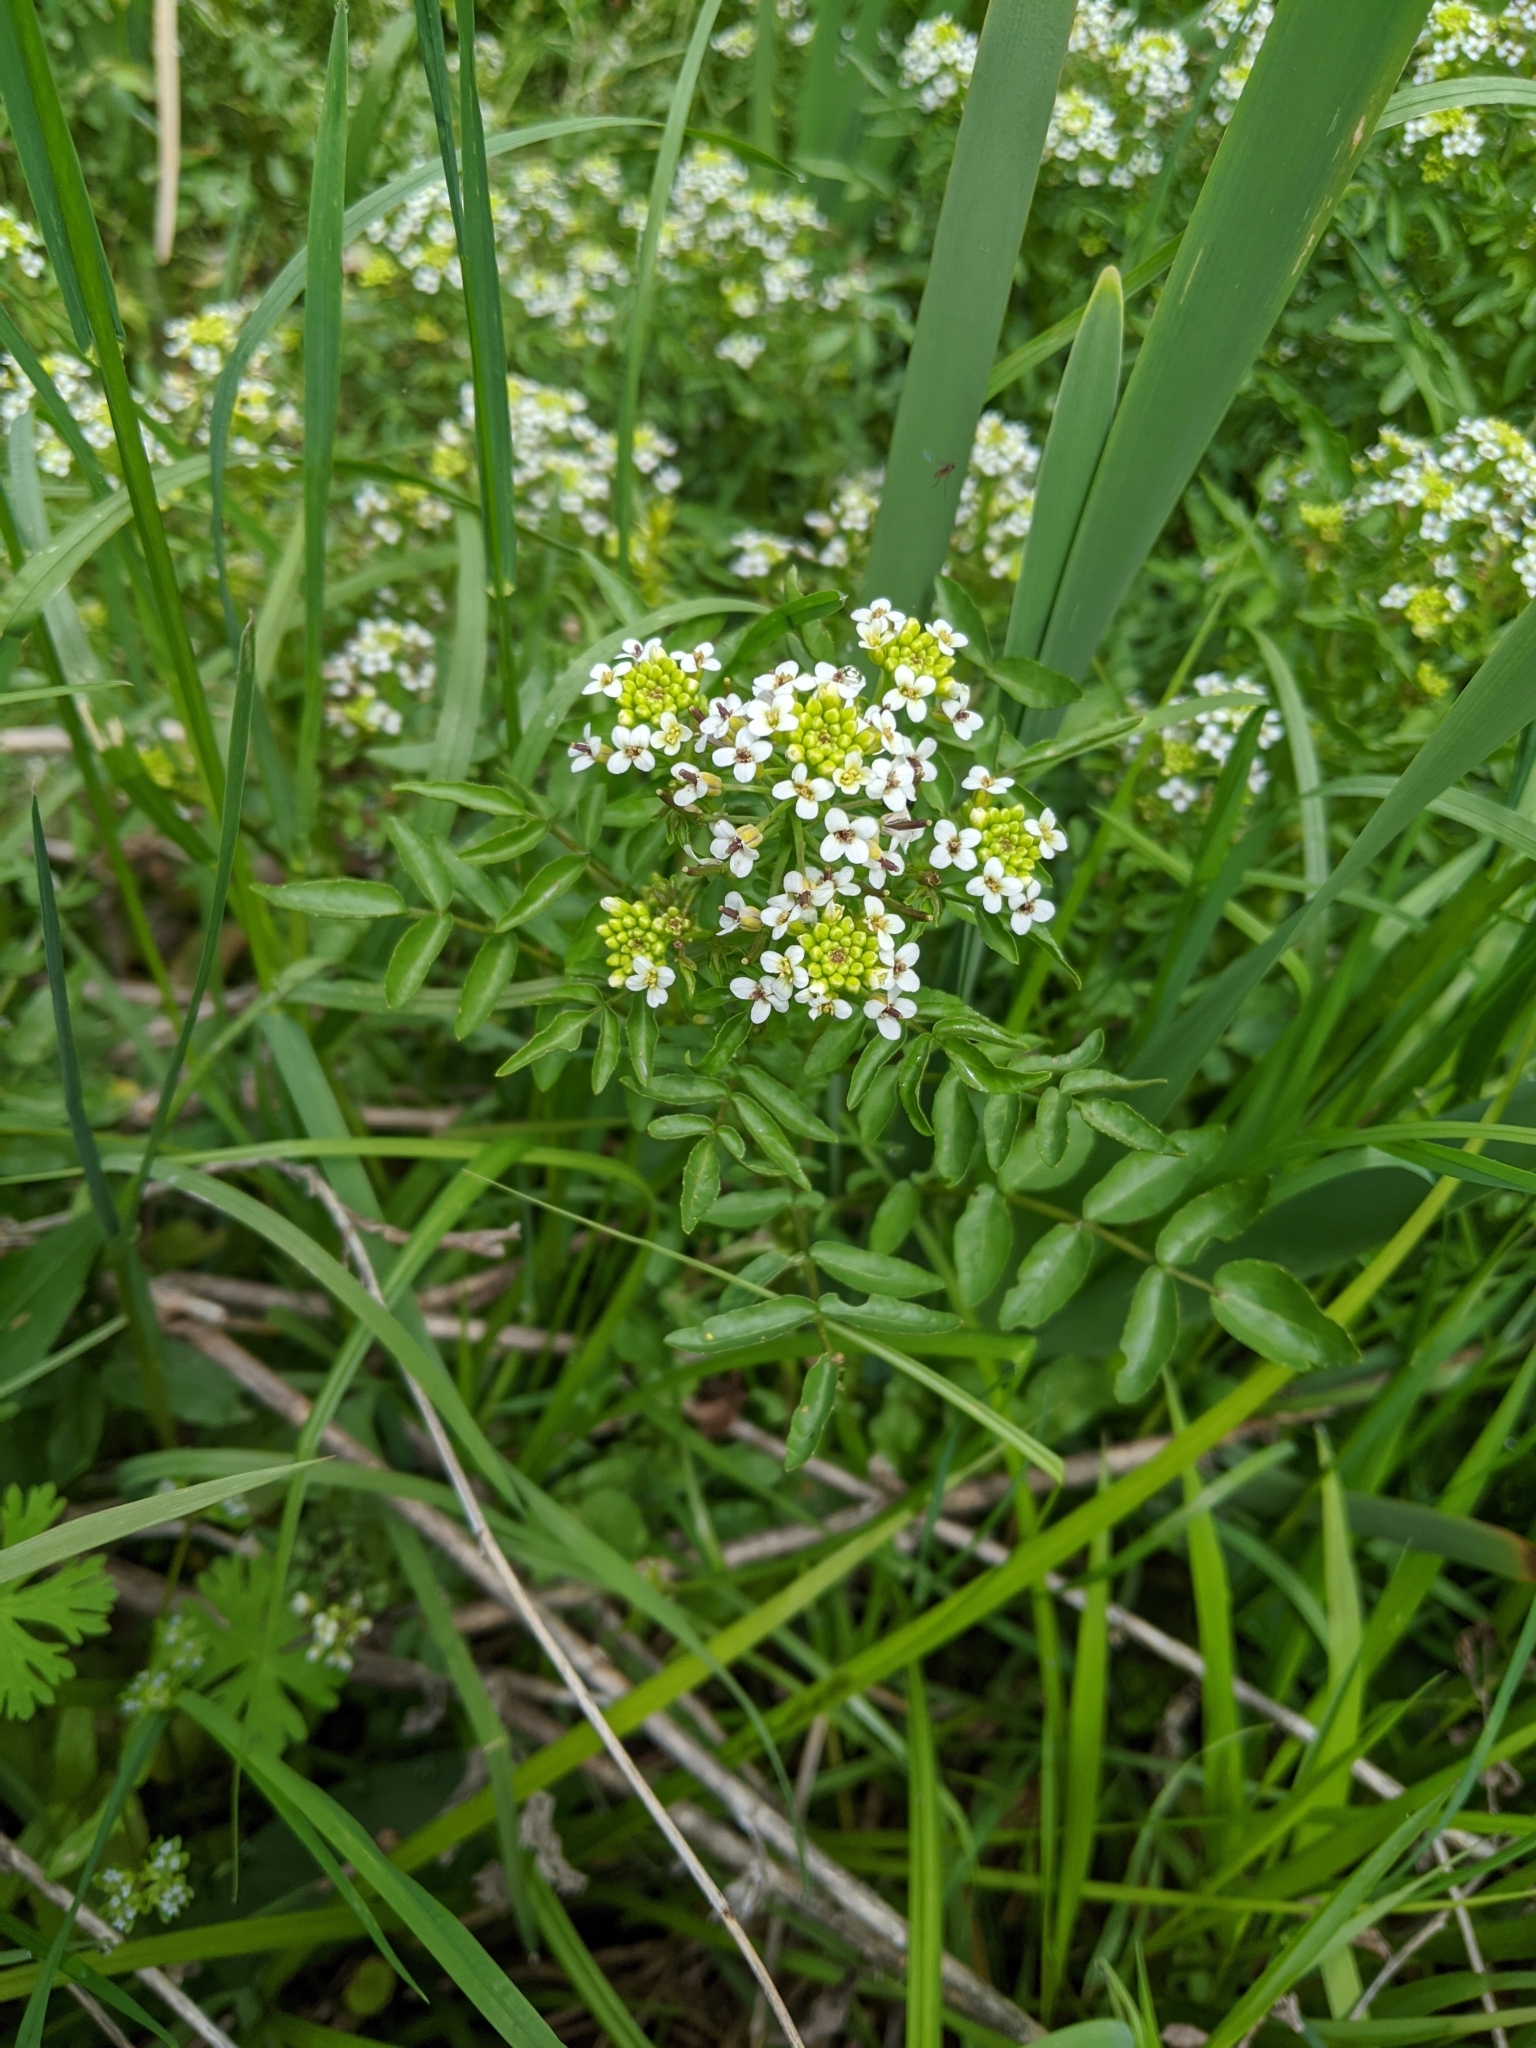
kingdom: Plantae
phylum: Tracheophyta
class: Magnoliopsida
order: Brassicales
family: Brassicaceae
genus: Nasturtium
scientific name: Nasturtium officinale
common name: Watercress
